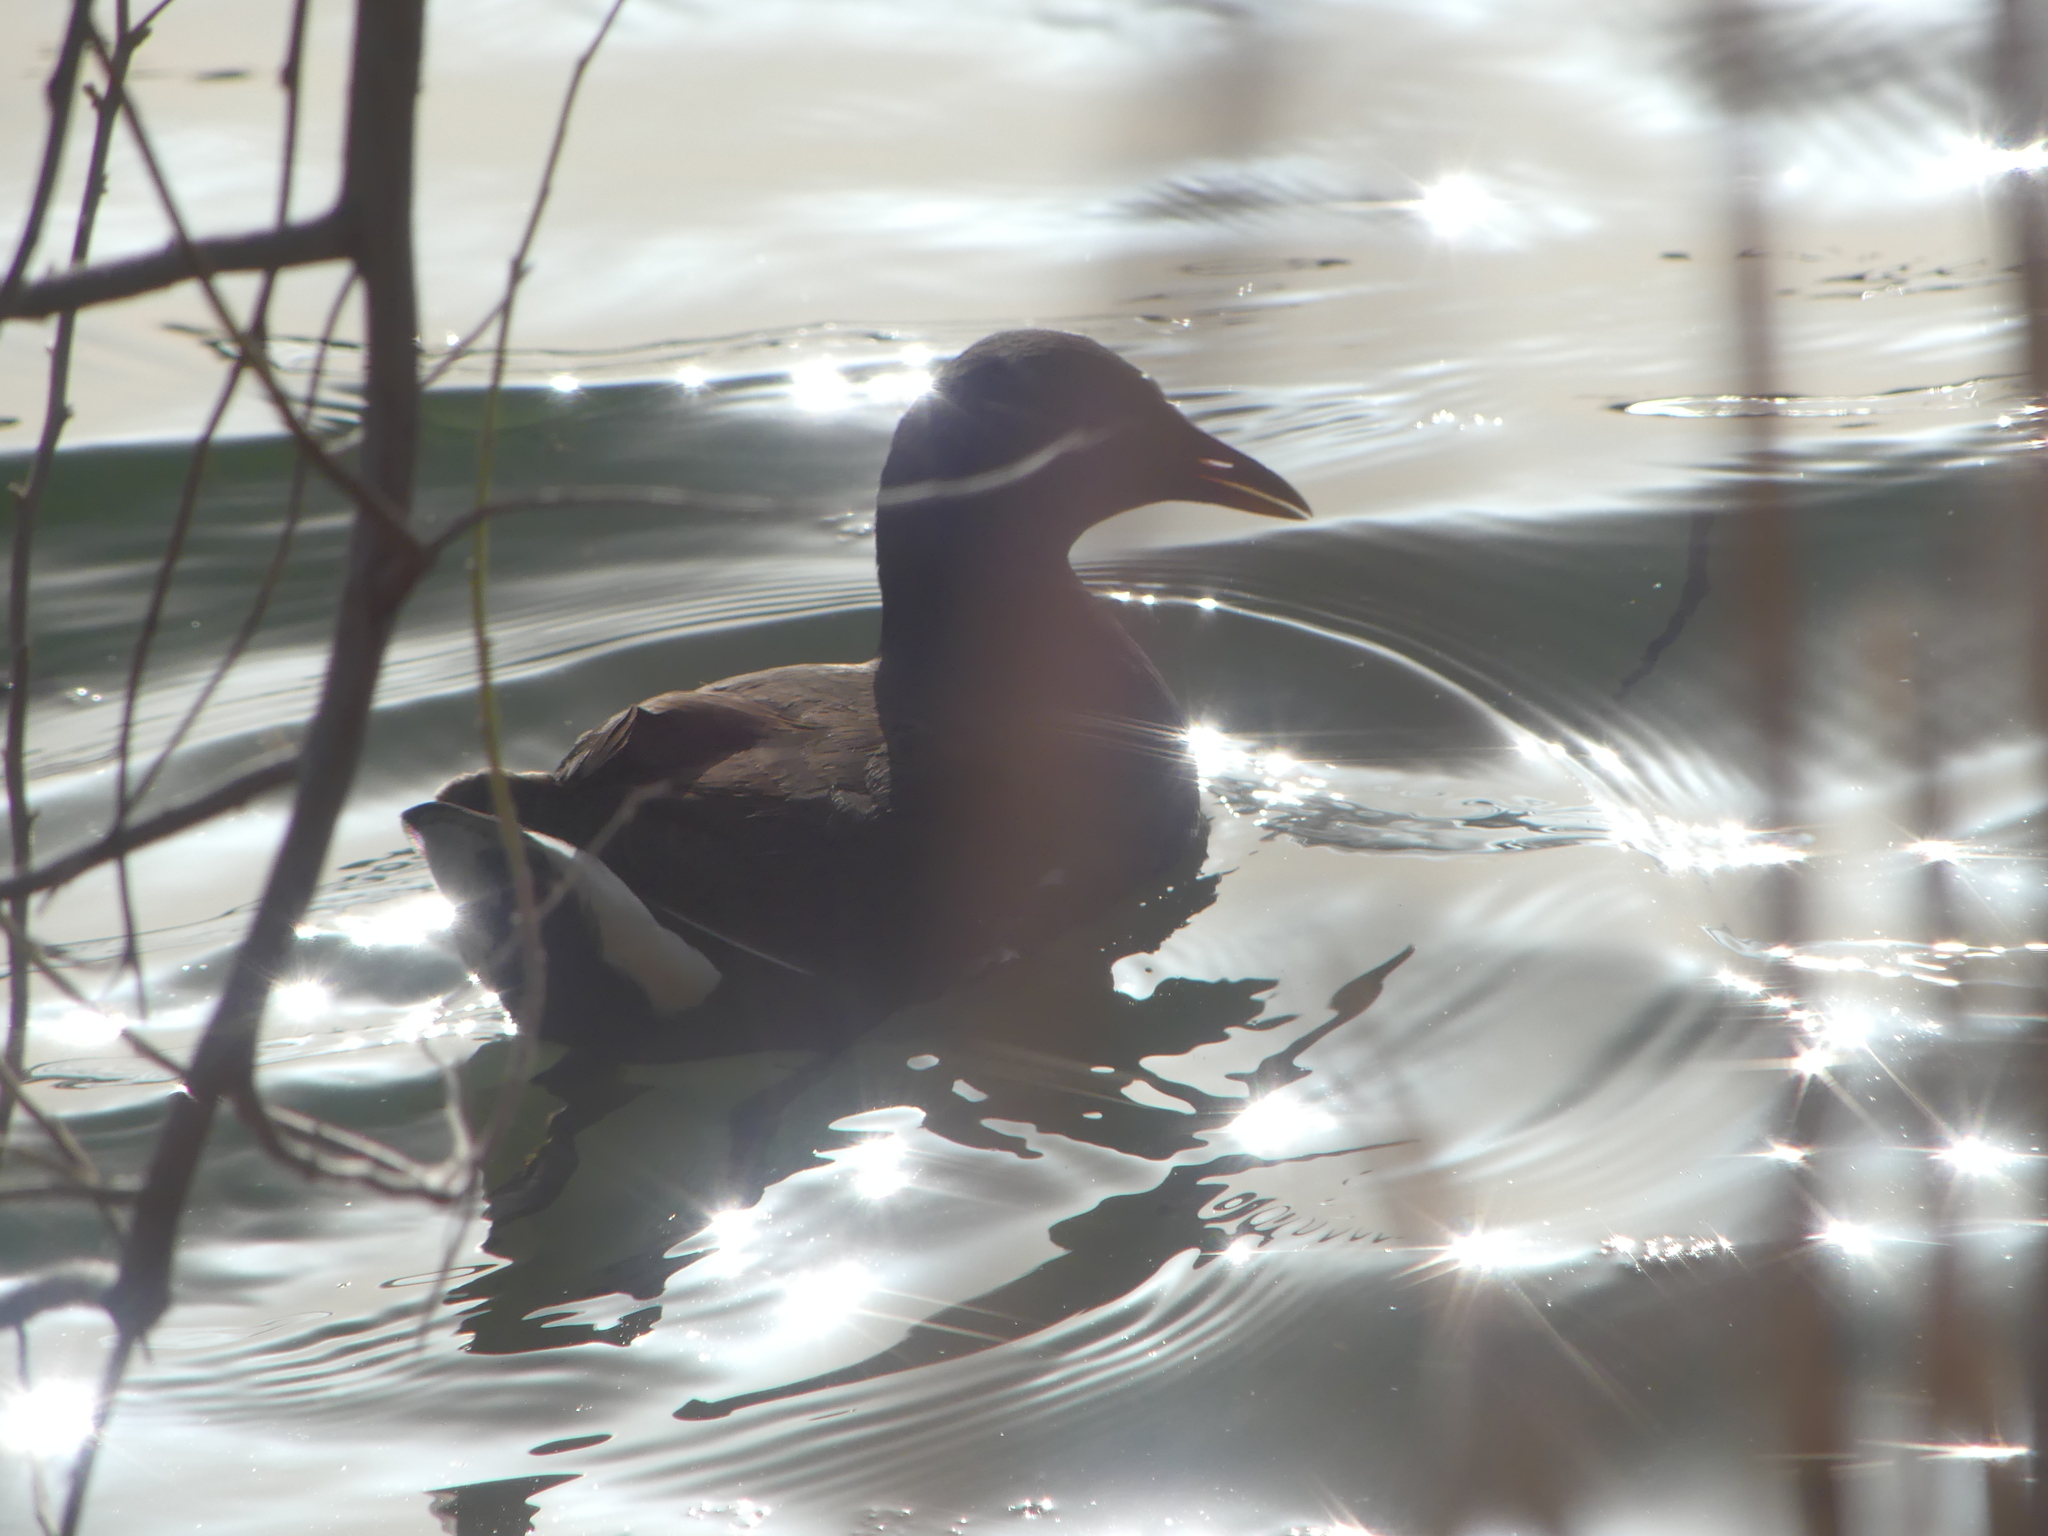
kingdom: Animalia
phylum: Chordata
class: Aves
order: Gruiformes
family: Rallidae
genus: Gallinula
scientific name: Gallinula chloropus
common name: Common moorhen
